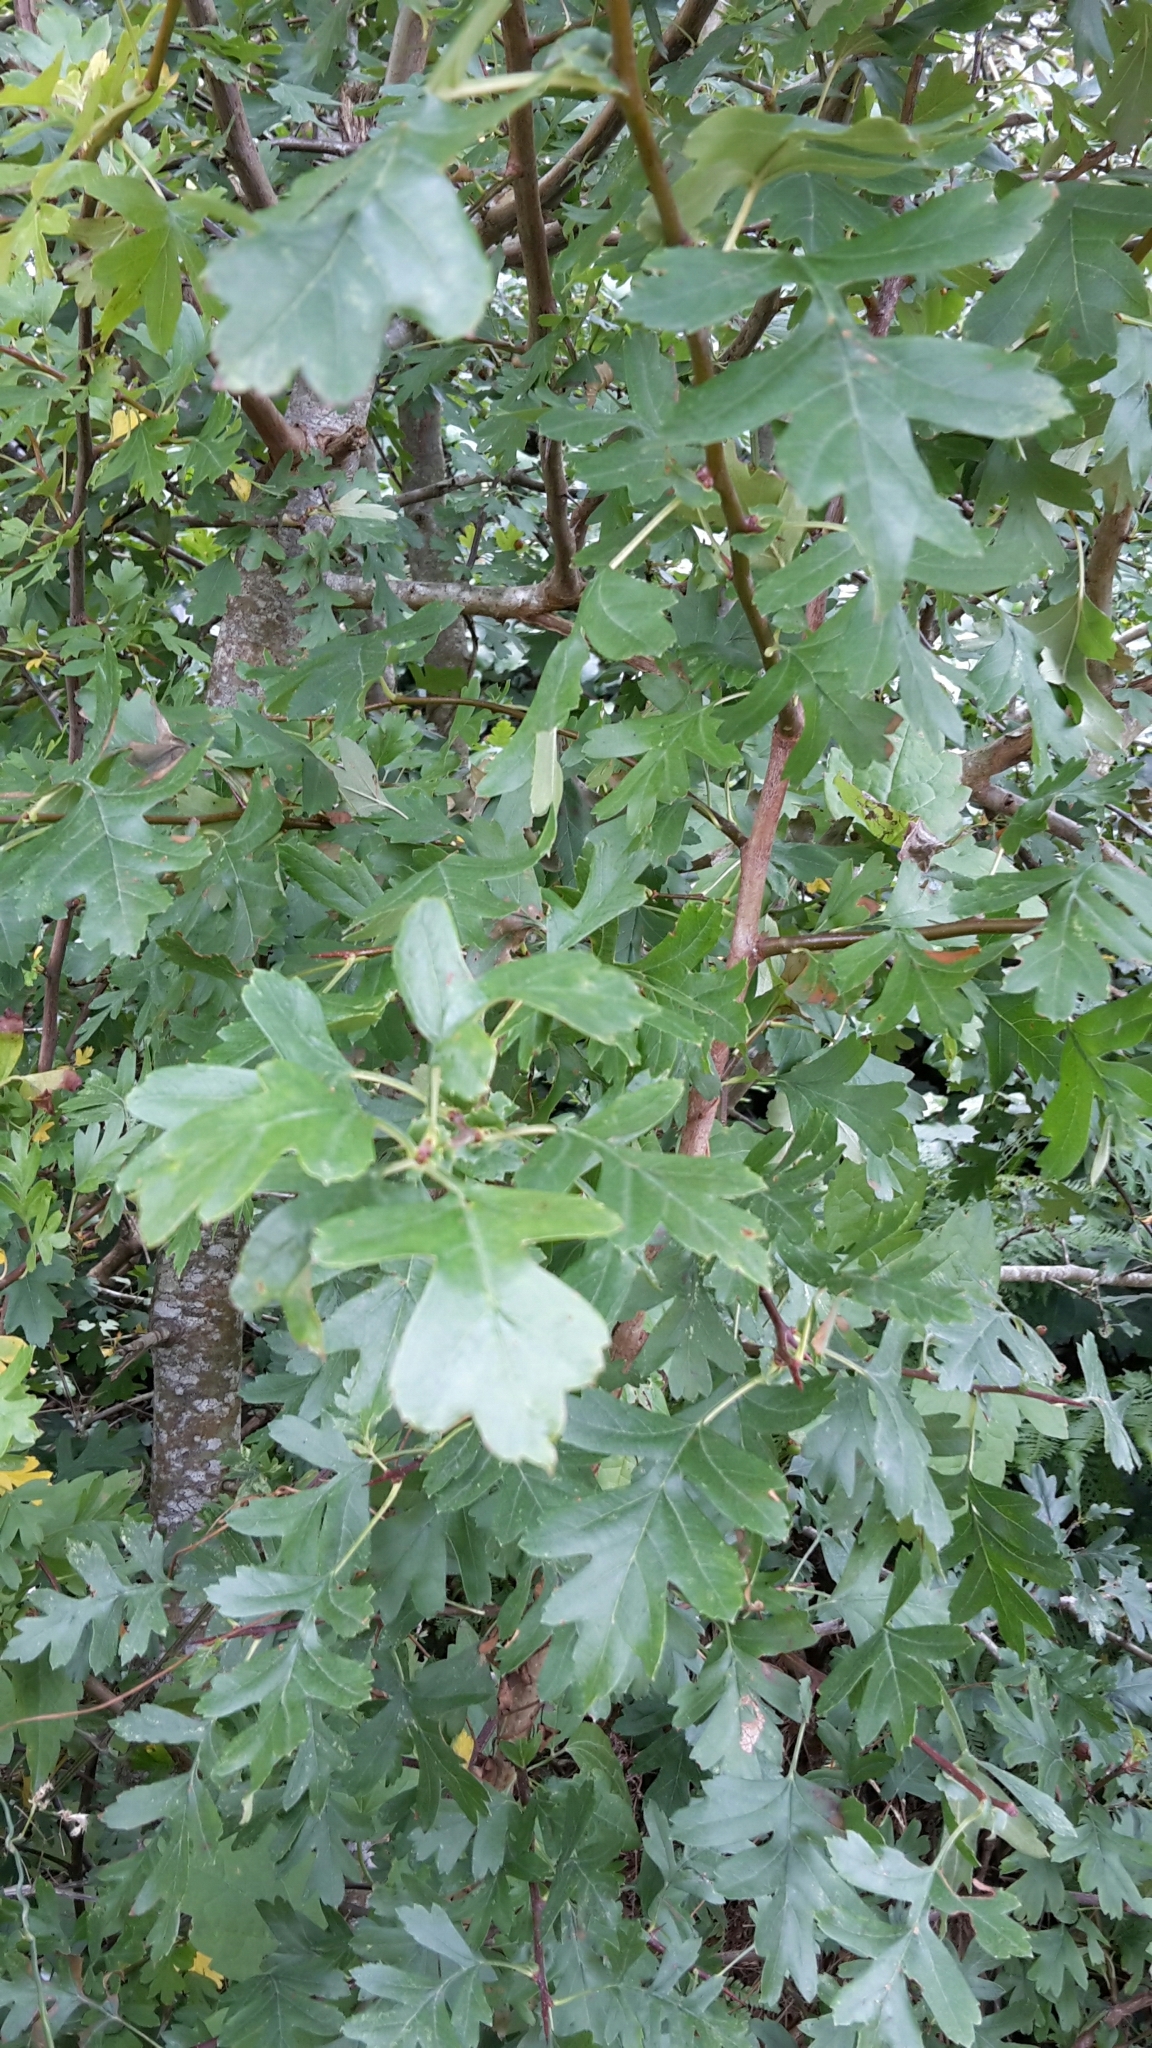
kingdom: Plantae
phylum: Tracheophyta
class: Magnoliopsida
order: Rosales
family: Rosaceae
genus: Crataegus
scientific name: Crataegus monogyna
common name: Hawthorn
